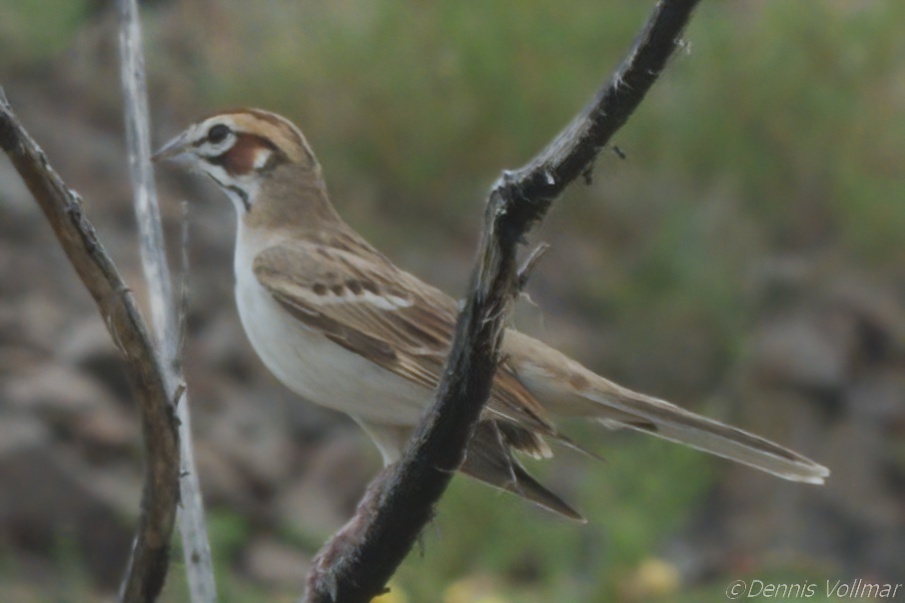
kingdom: Animalia
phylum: Chordata
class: Aves
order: Passeriformes
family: Passerellidae
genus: Chondestes
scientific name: Chondestes grammacus
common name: Lark sparrow
